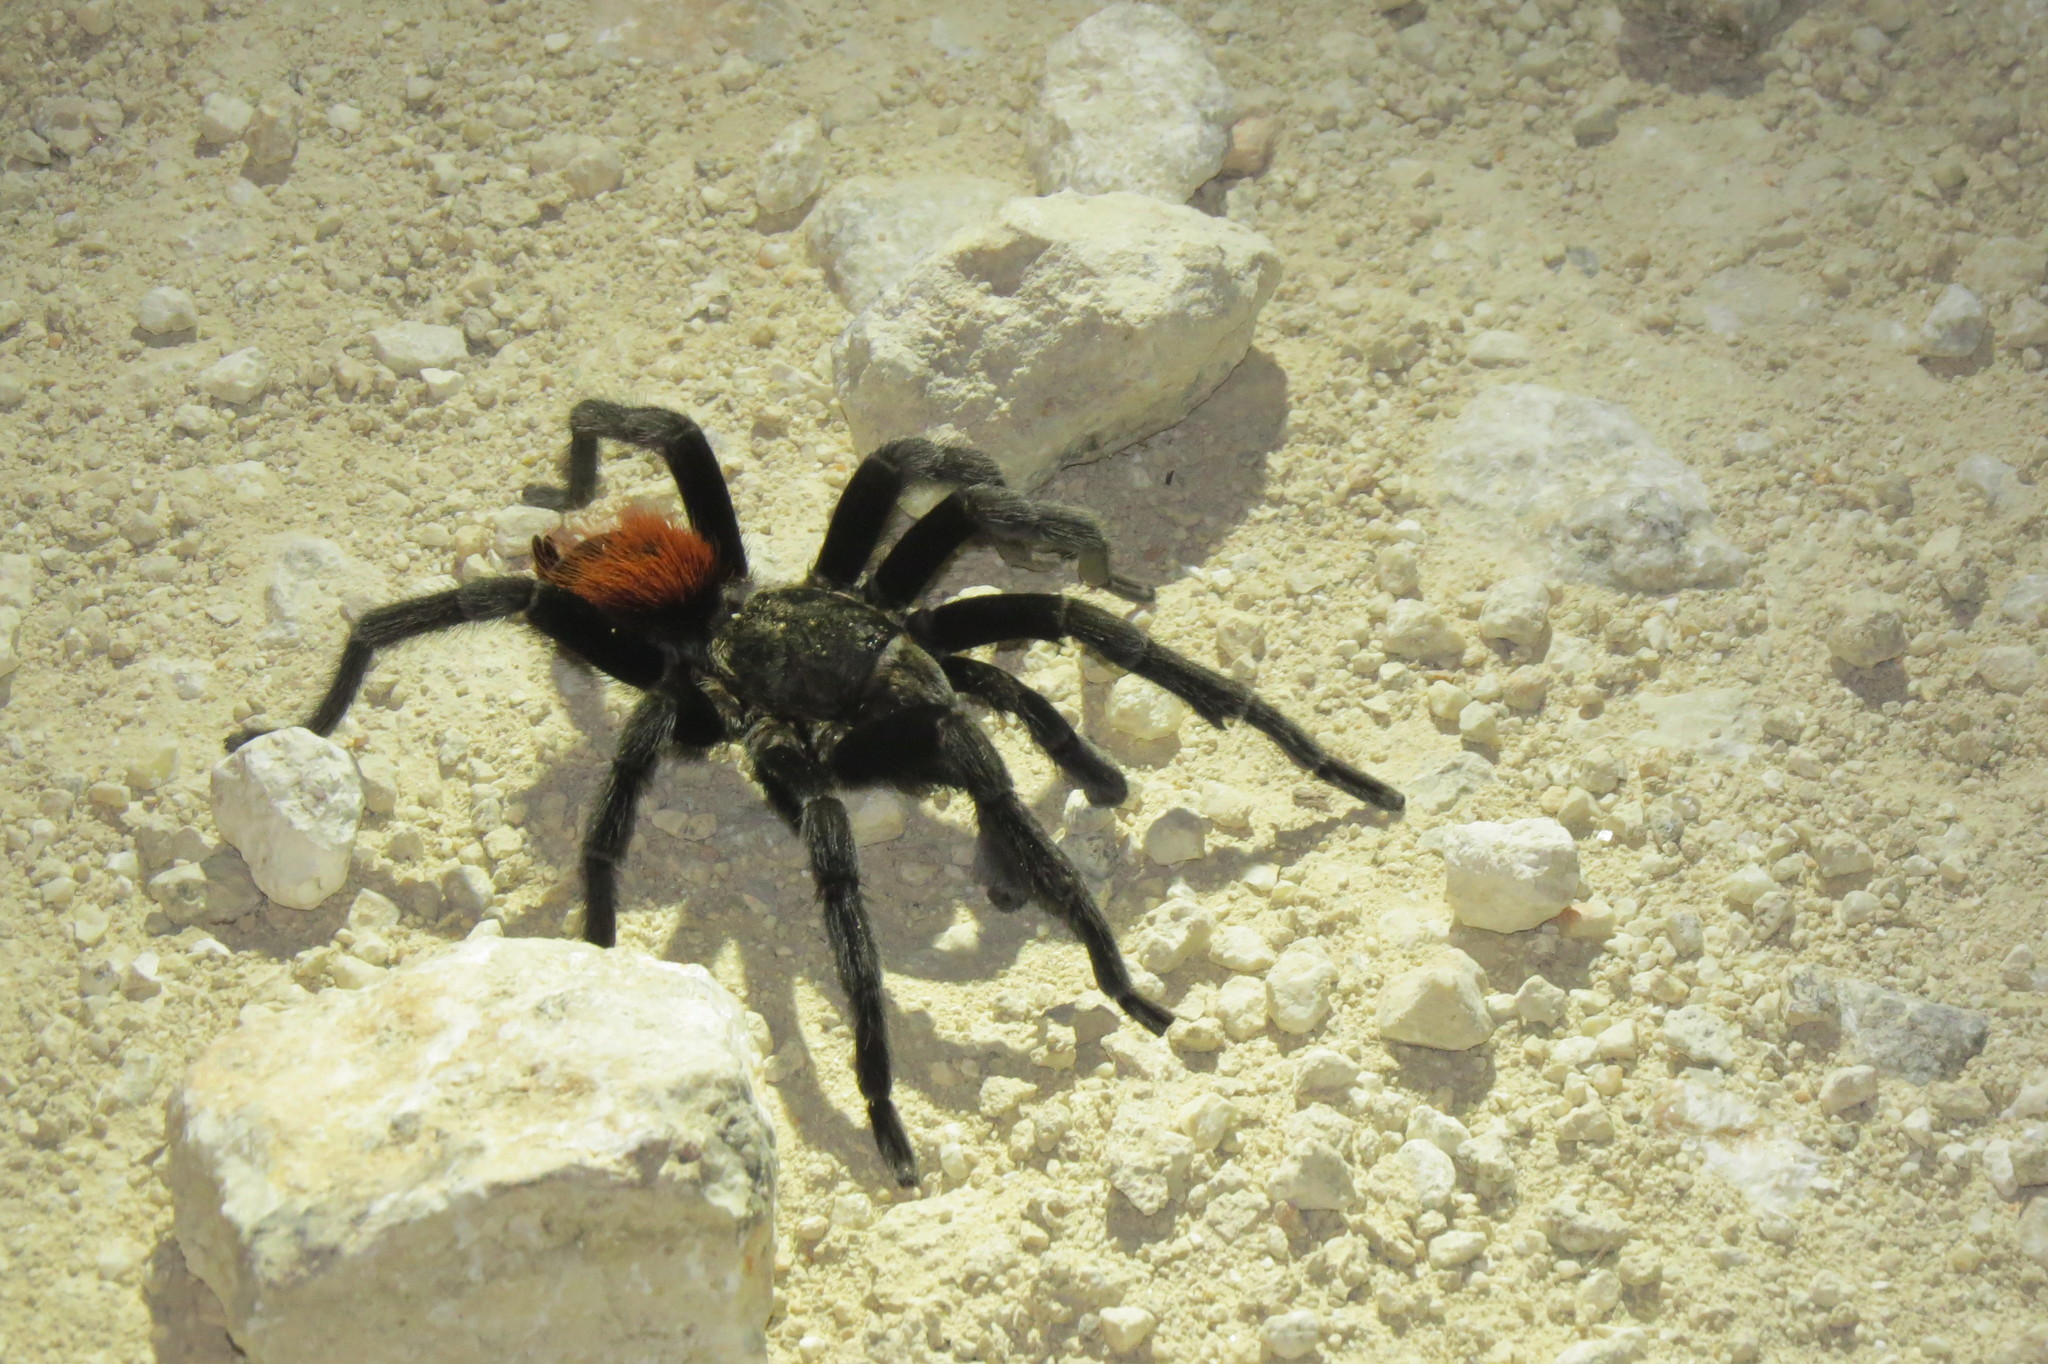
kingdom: Animalia
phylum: Arthropoda
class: Arachnida
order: Araneae
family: Theraphosidae
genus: Tliltocatl
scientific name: Tliltocatl vagans
